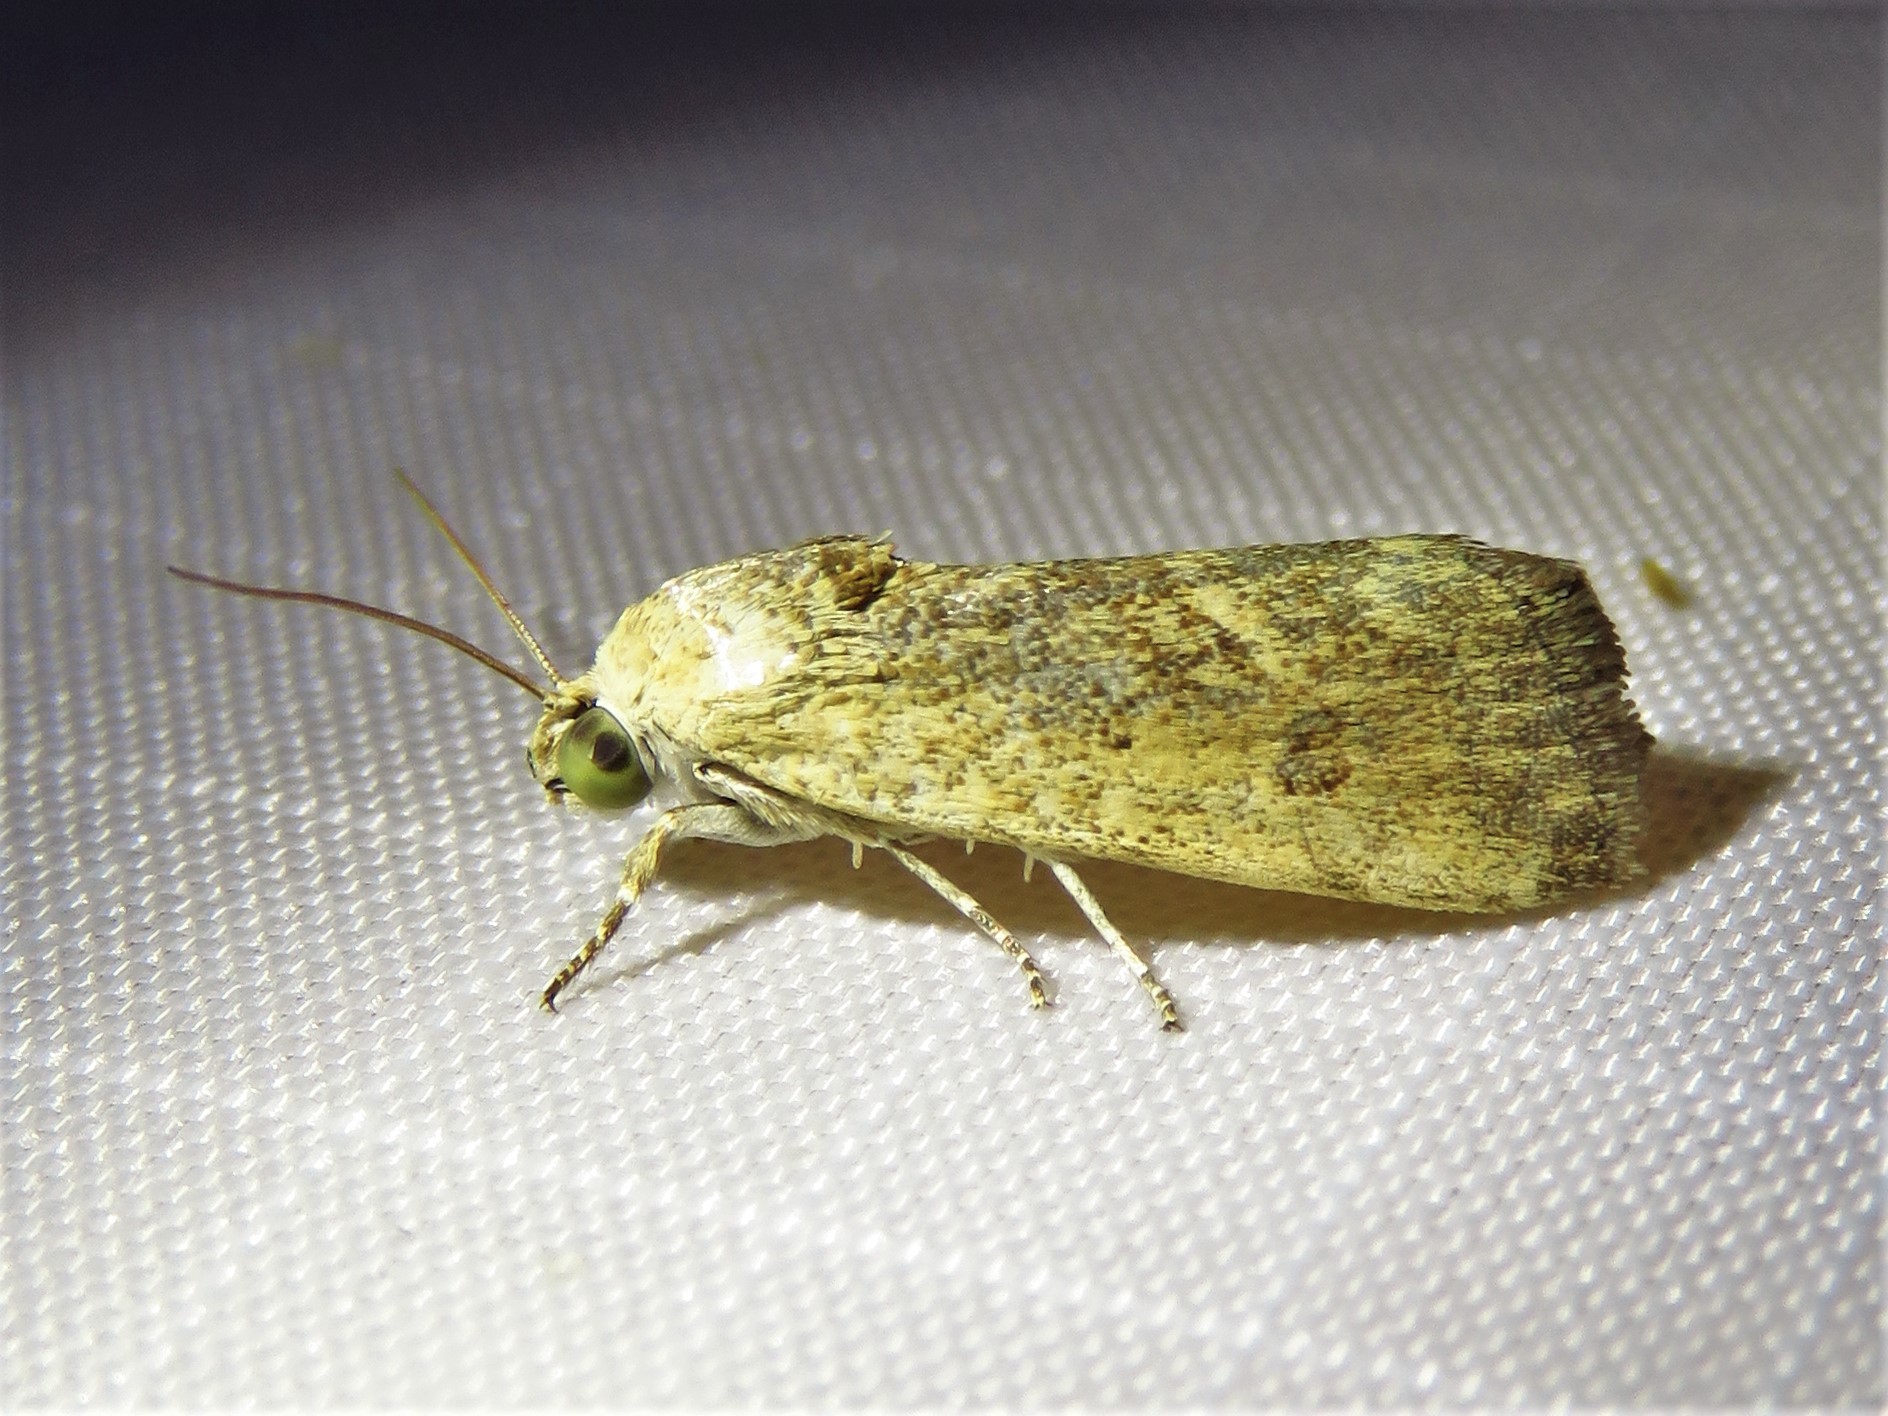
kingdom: Animalia
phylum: Arthropoda
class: Insecta
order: Lepidoptera
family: Noctuidae
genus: Acontia
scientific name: Acontia fasciatella
